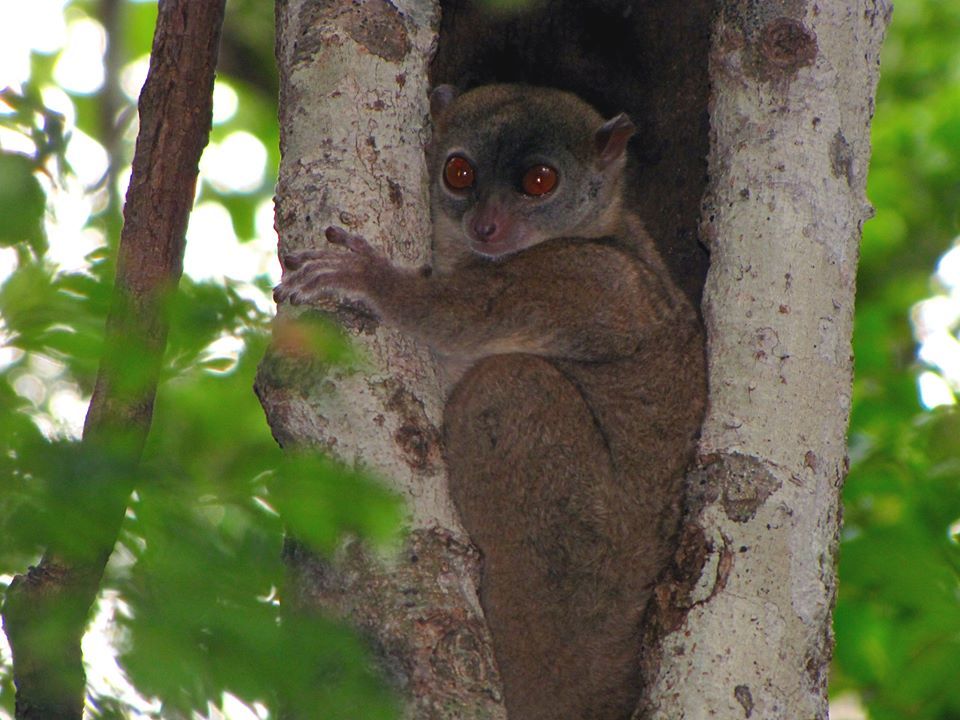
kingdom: Animalia
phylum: Chordata
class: Mammalia
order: Primates
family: Lepilemuridae
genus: Lepilemur
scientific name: Lepilemur ankaranensis
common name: Ankarana sportive lemur
